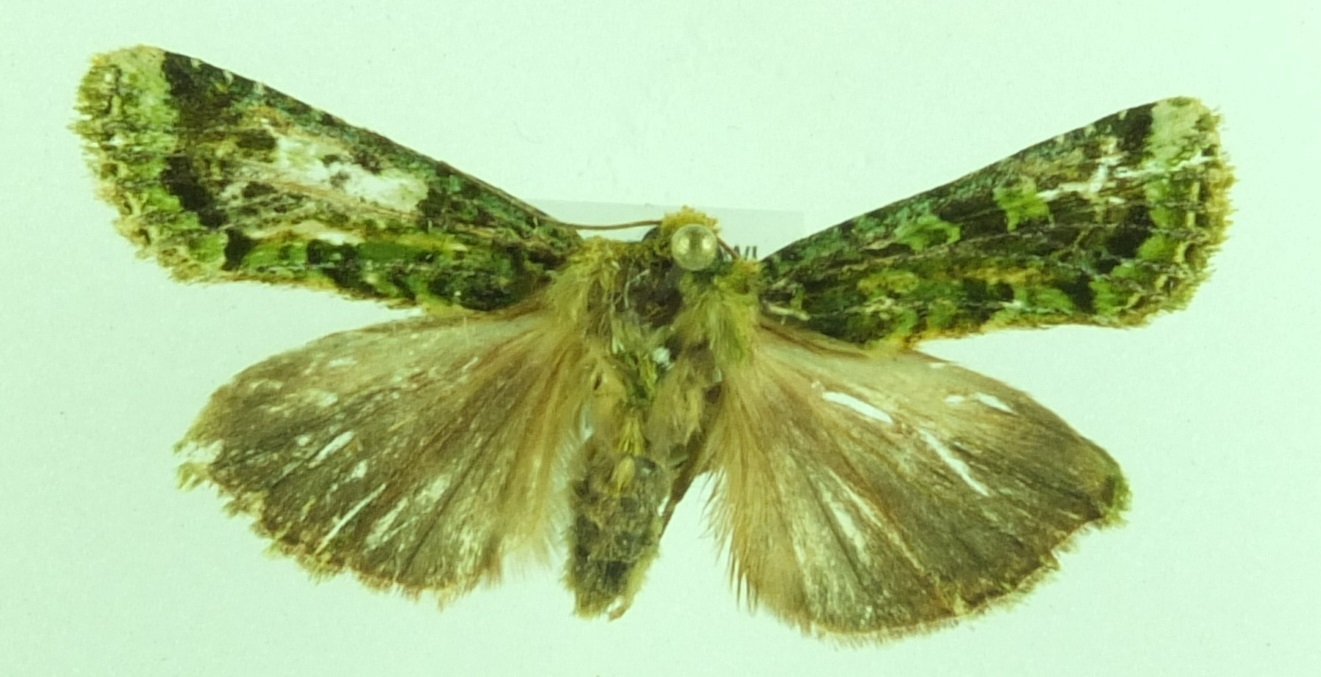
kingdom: Animalia
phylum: Arthropoda
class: Insecta
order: Lepidoptera
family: Noctuidae
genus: Feredayia
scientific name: Feredayia grammosa
